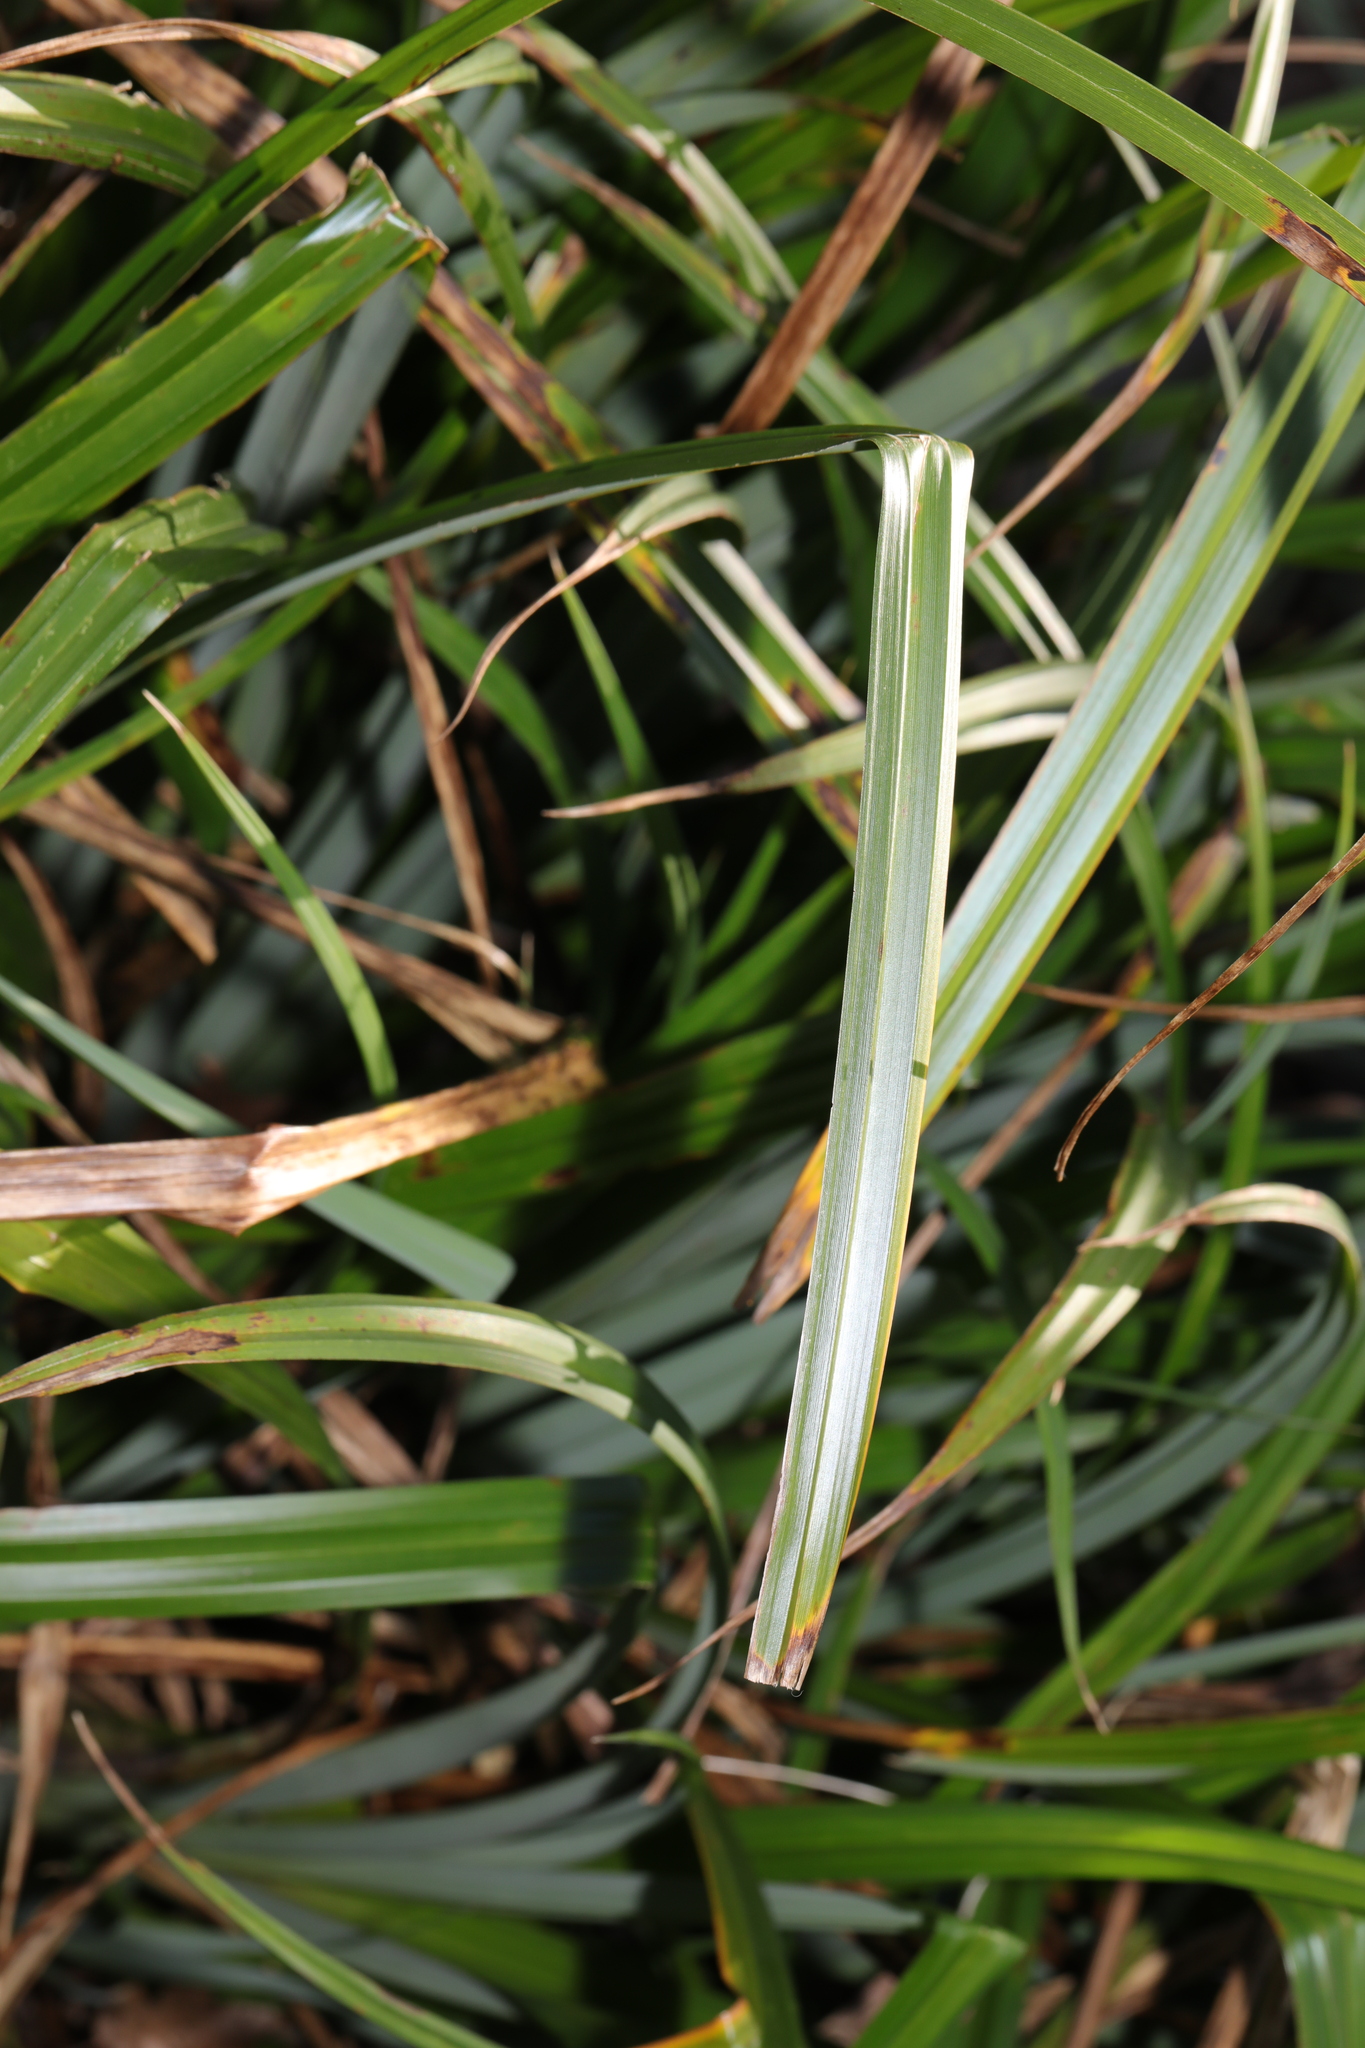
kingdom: Plantae
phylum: Tracheophyta
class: Liliopsida
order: Poales
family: Cyperaceae
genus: Carex
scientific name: Carex pendula
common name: Pendulous sedge
